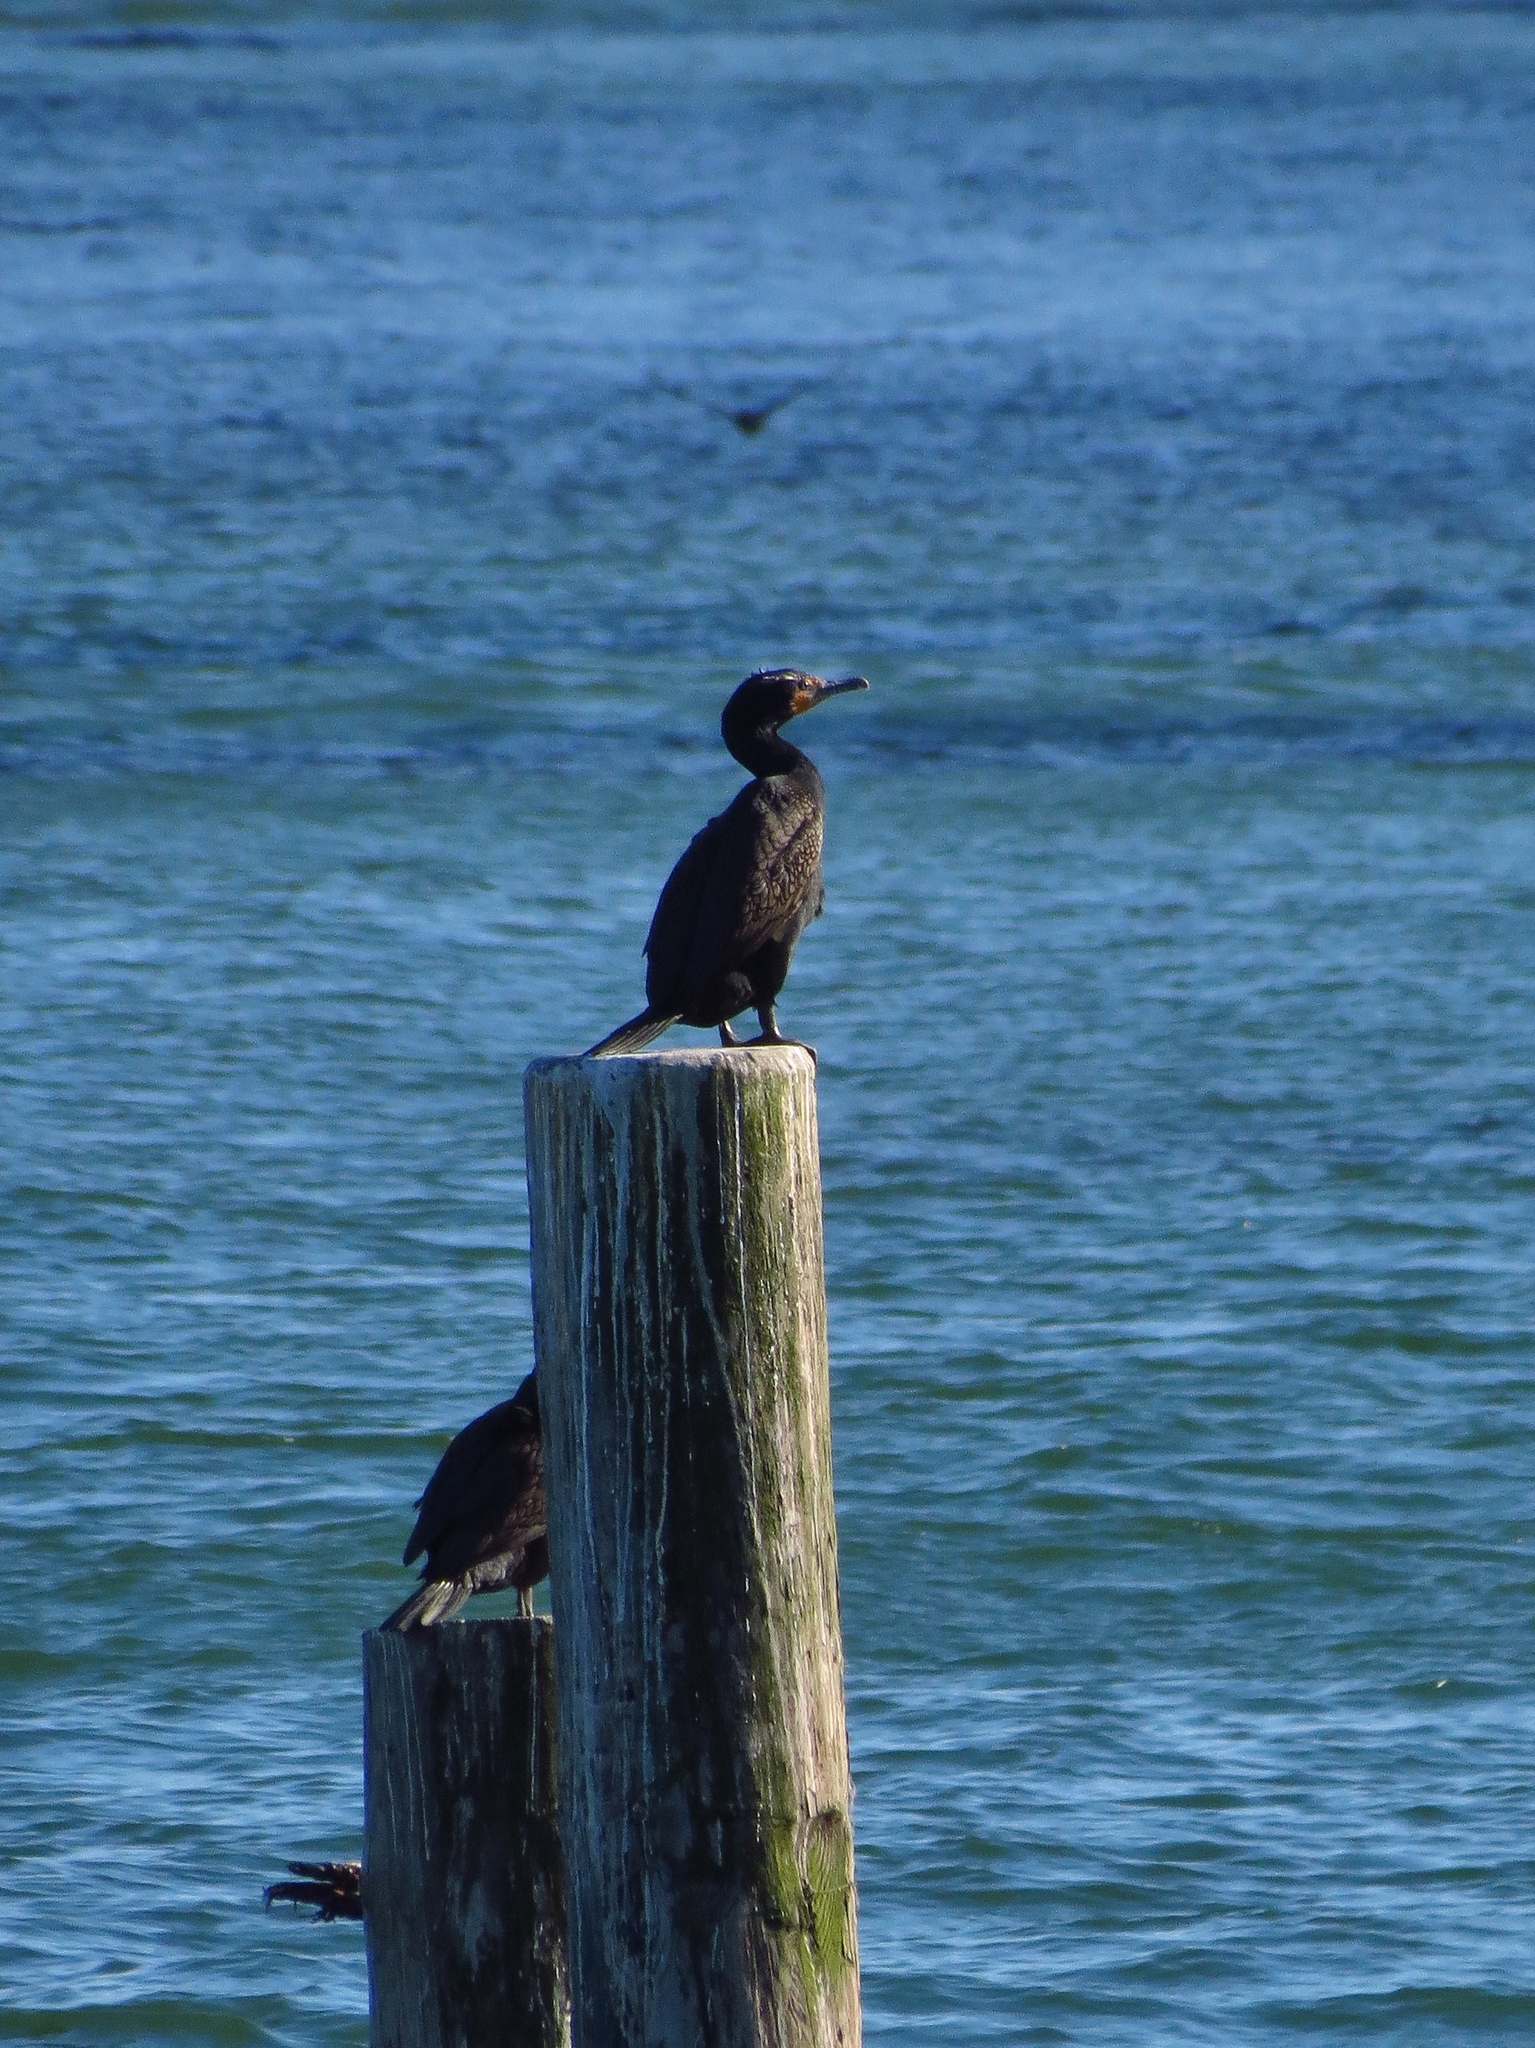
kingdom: Animalia
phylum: Chordata
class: Aves
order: Suliformes
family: Phalacrocoracidae
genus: Phalacrocorax
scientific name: Phalacrocorax auritus
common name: Double-crested cormorant
